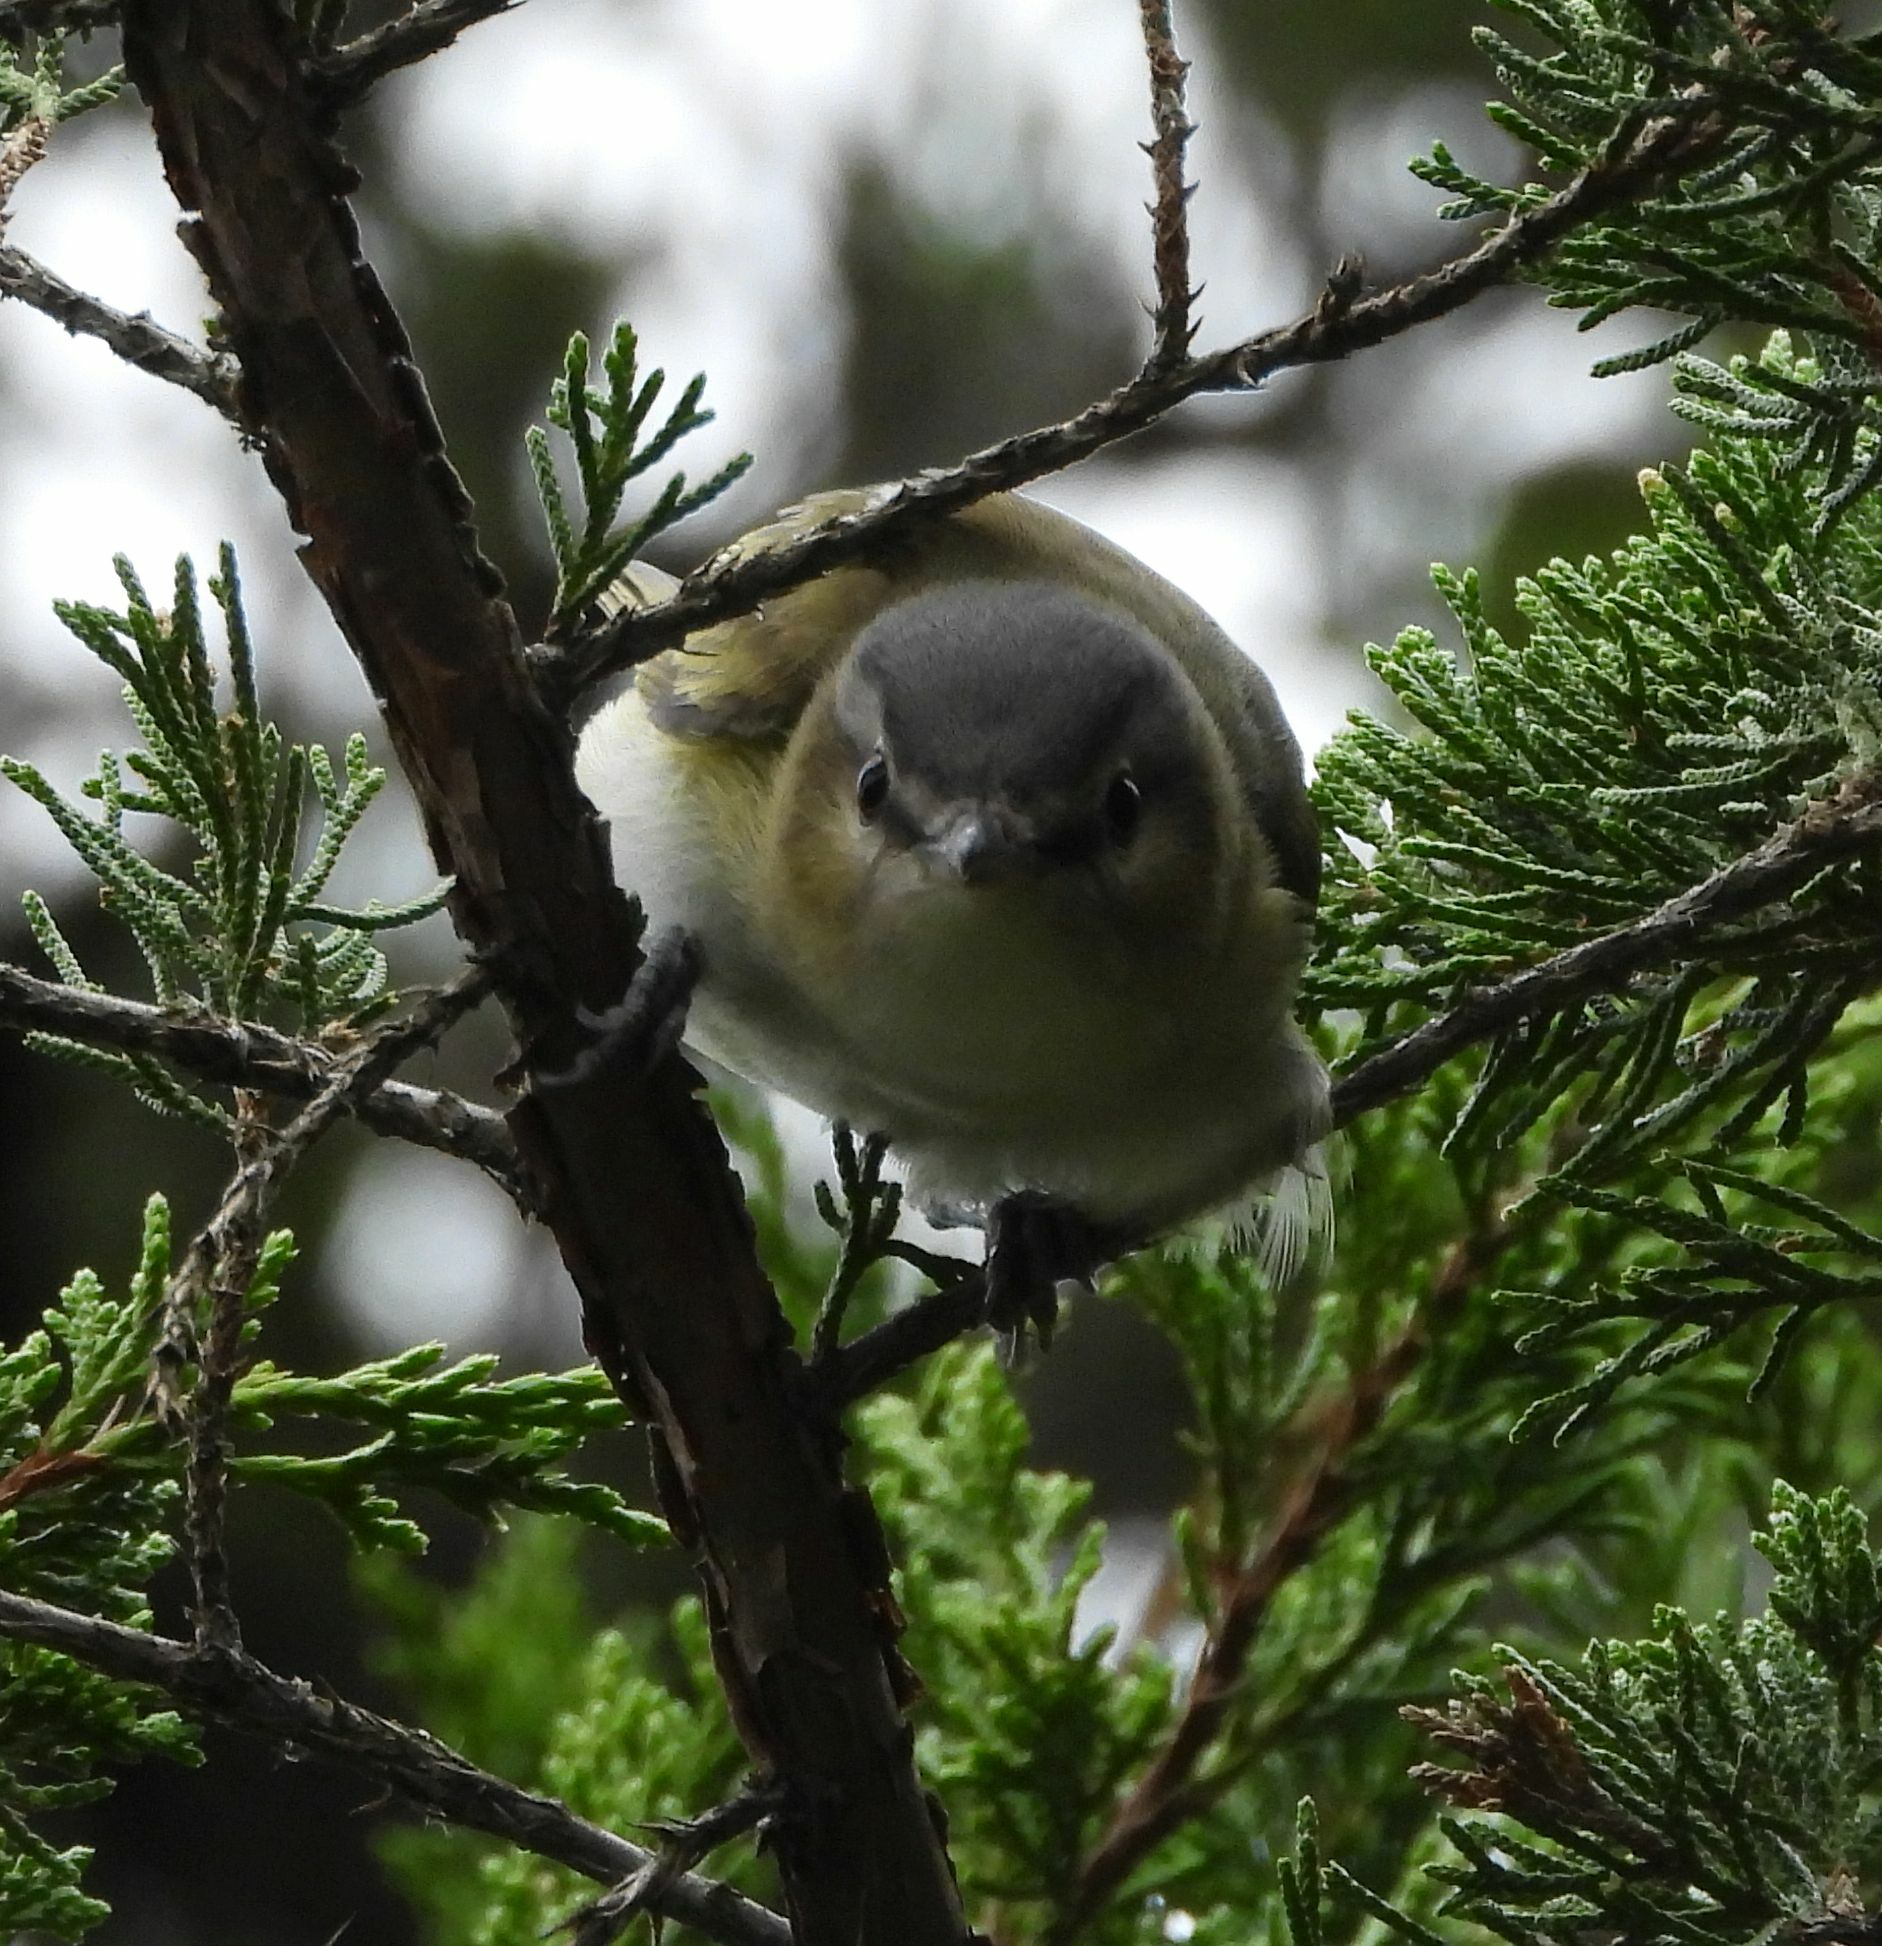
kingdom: Animalia
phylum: Chordata
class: Aves
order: Passeriformes
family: Vireonidae
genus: Vireo
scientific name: Vireo olivaceus
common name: Red-eyed vireo
